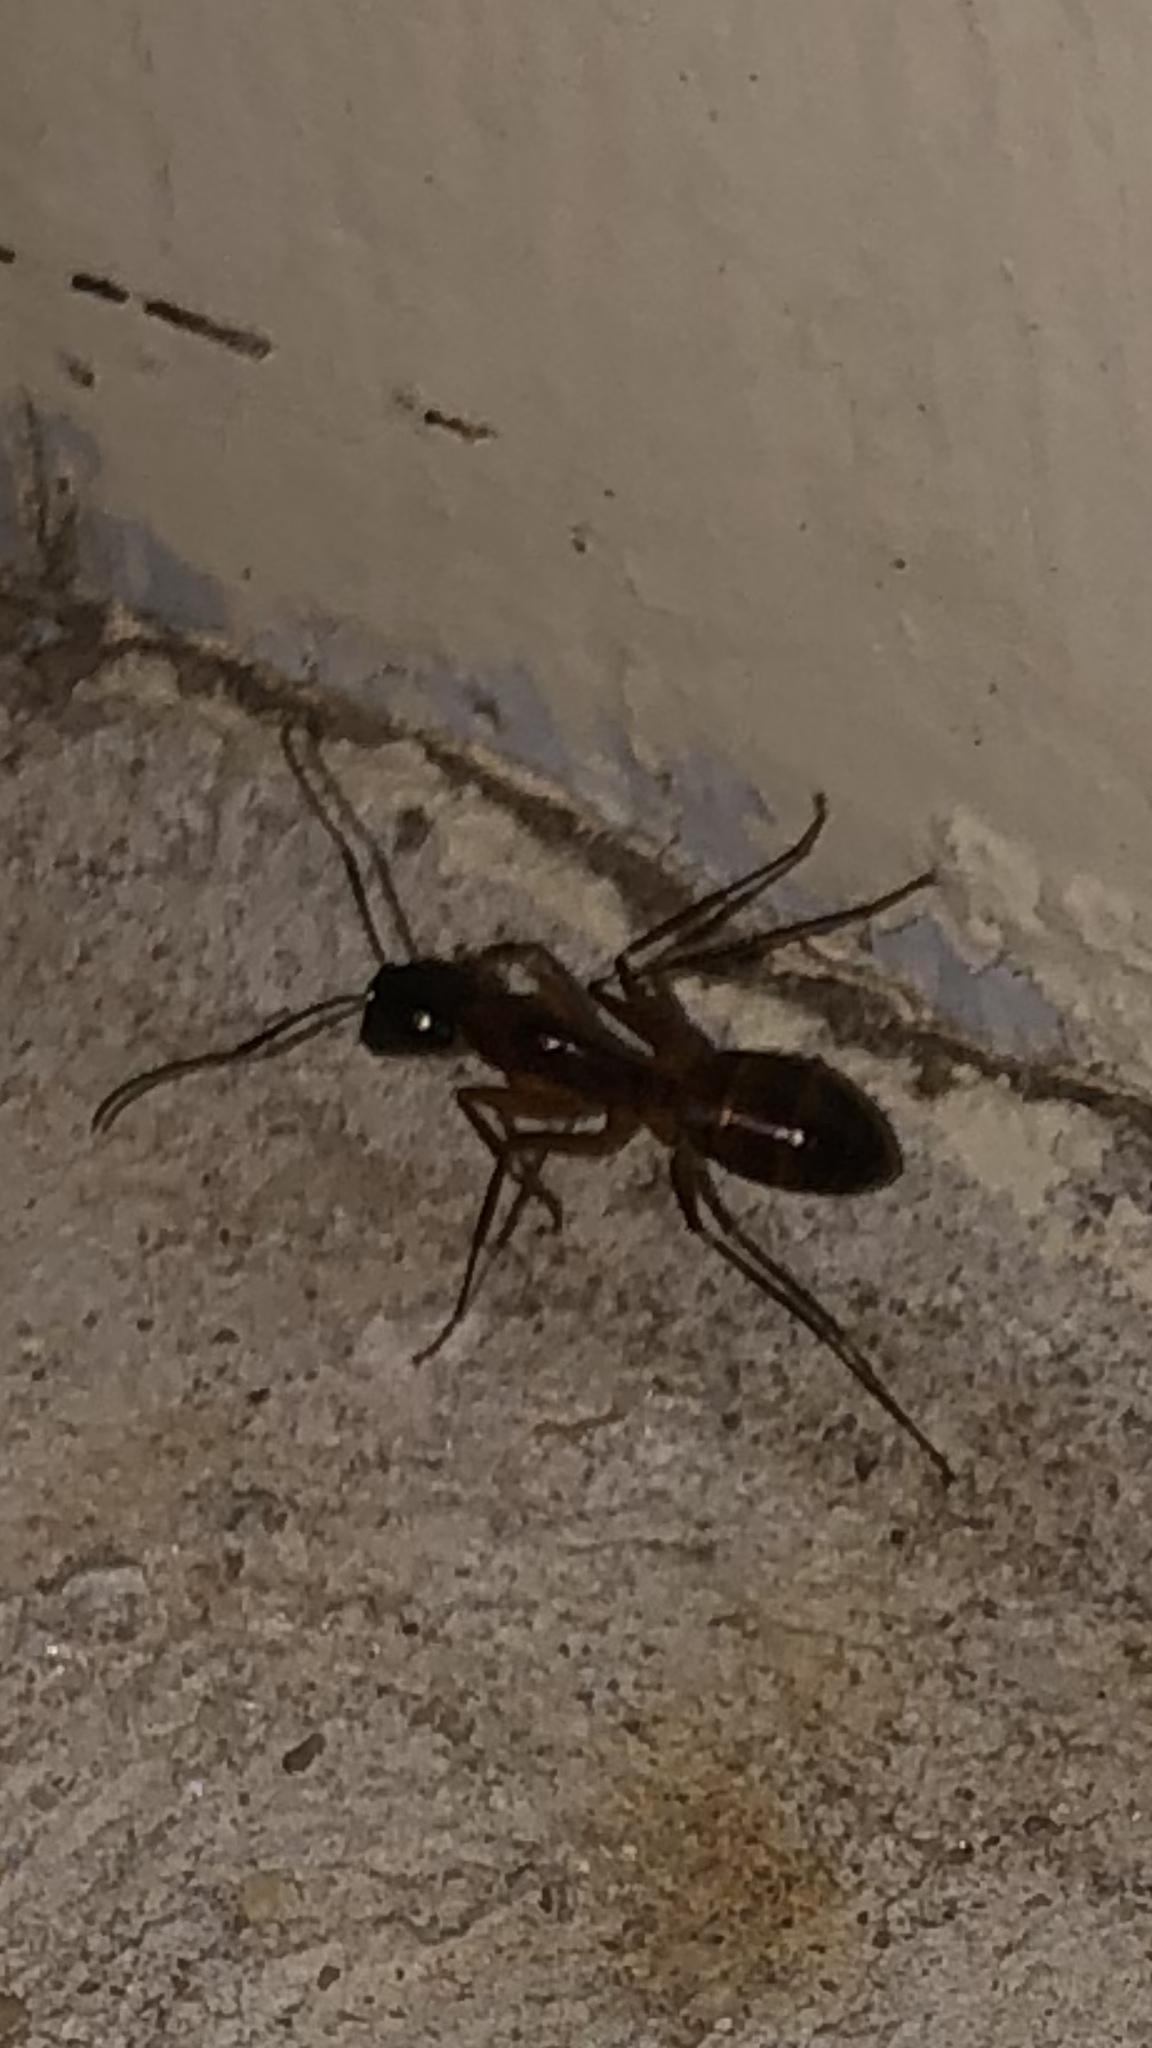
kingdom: Animalia
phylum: Arthropoda
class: Insecta
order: Hymenoptera
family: Formicidae
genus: Camponotus
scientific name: Camponotus americanus
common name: American carpenter ant
